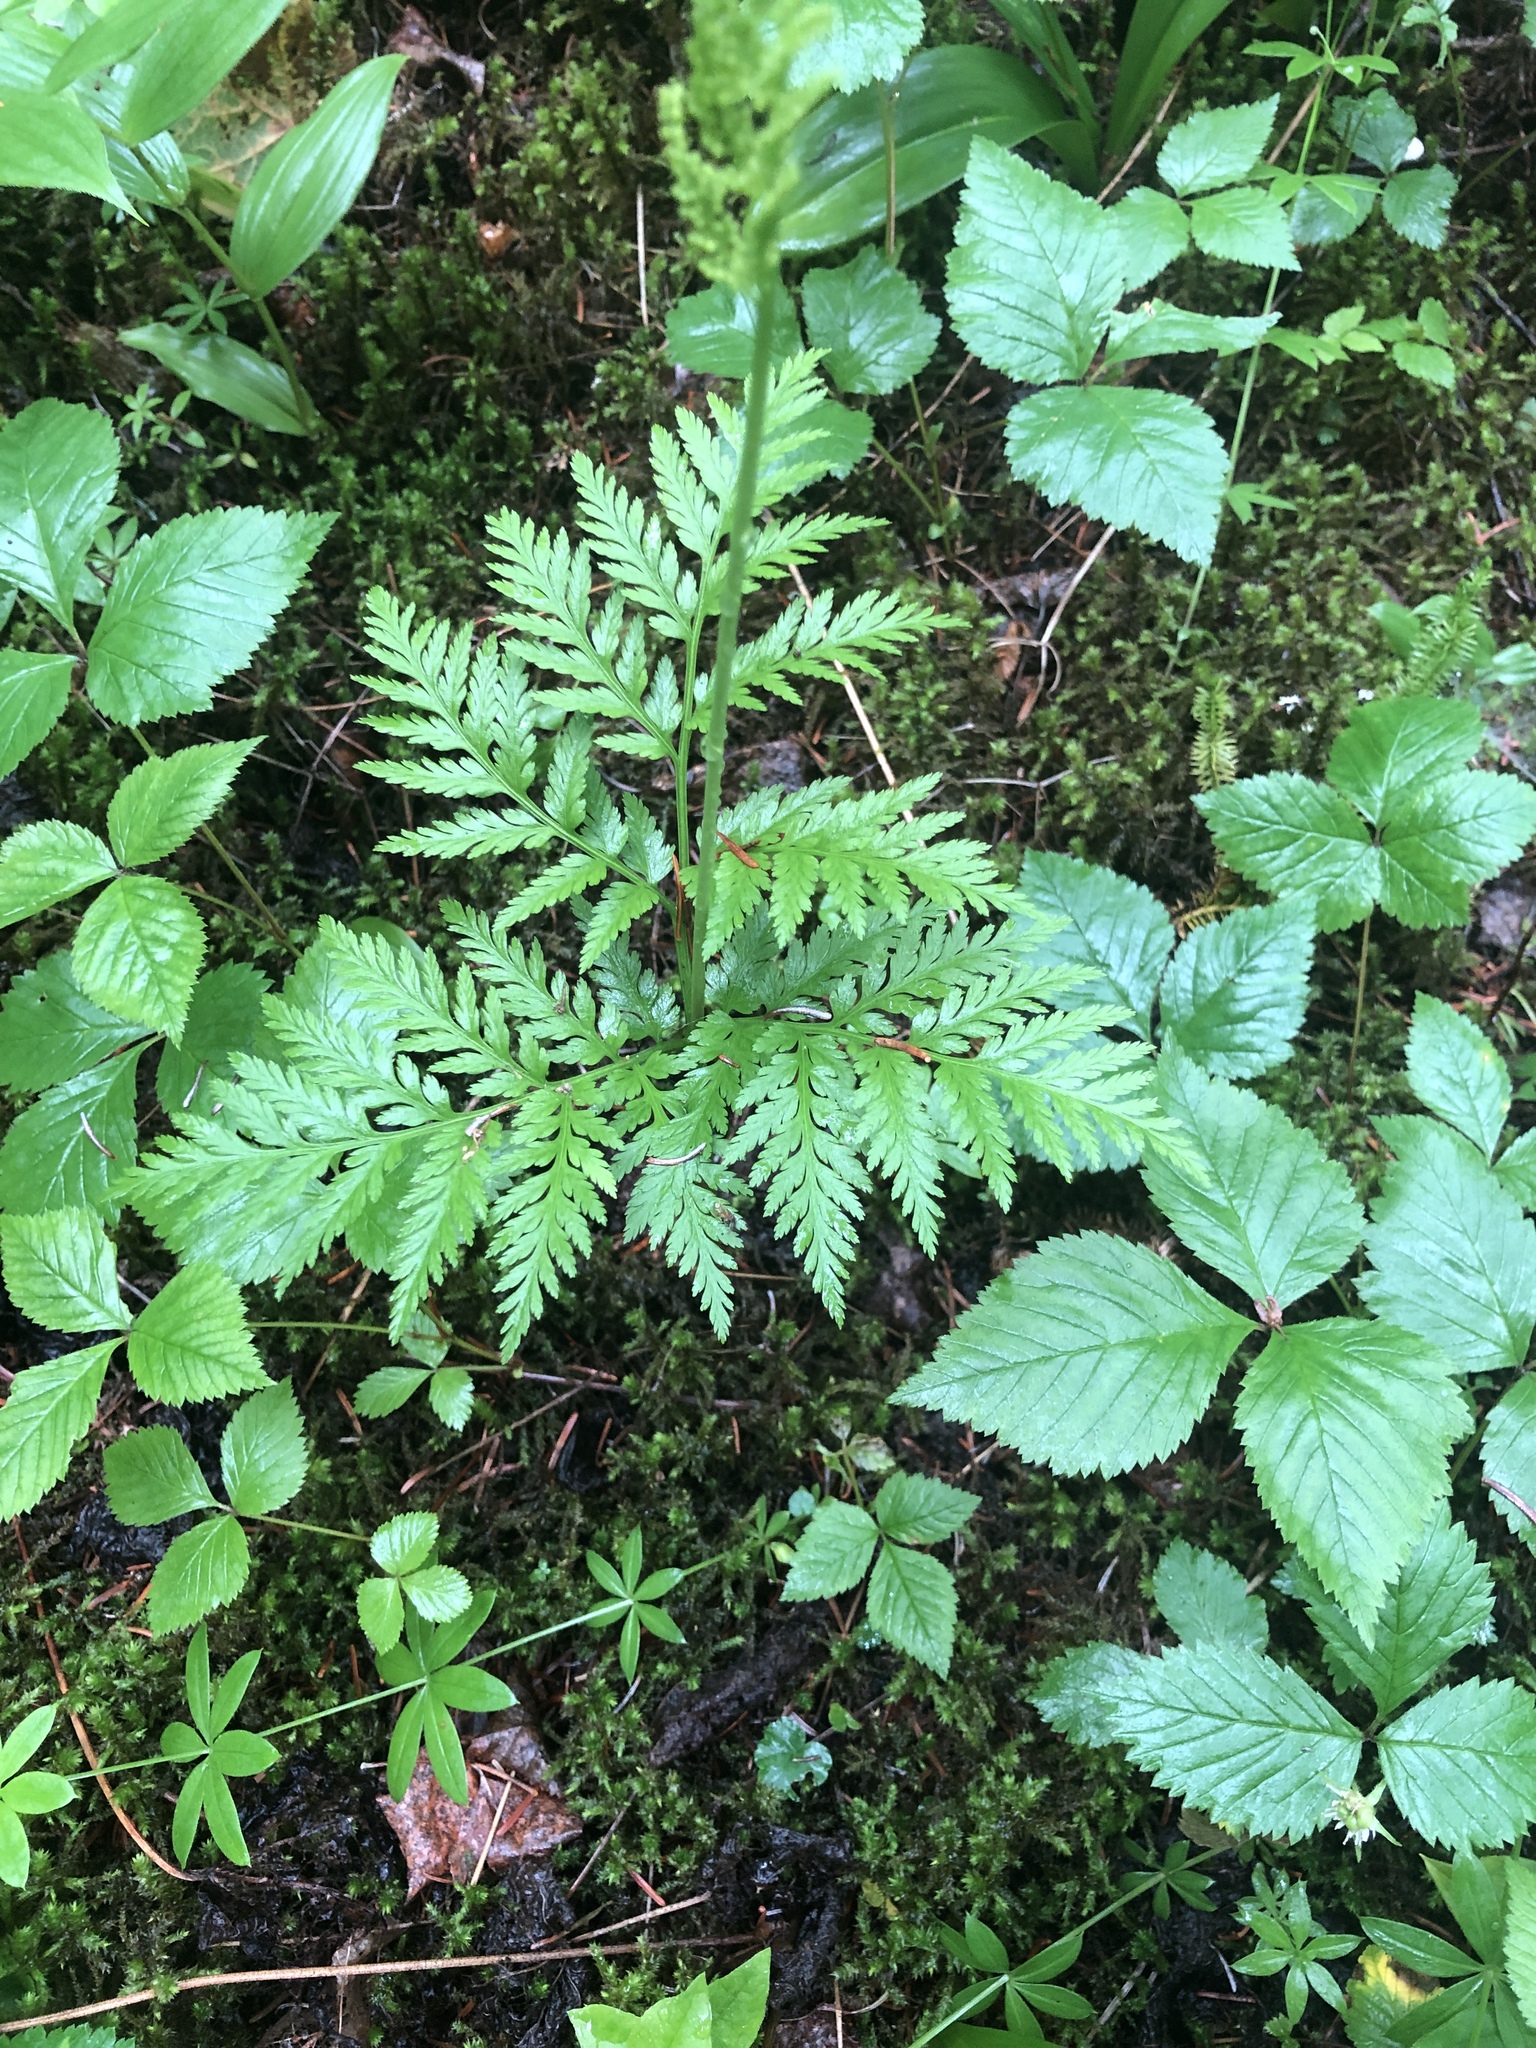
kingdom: Plantae
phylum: Tracheophyta
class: Polypodiopsida
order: Ophioglossales
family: Ophioglossaceae
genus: Botrypus
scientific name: Botrypus virginianus
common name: Common grapefern
